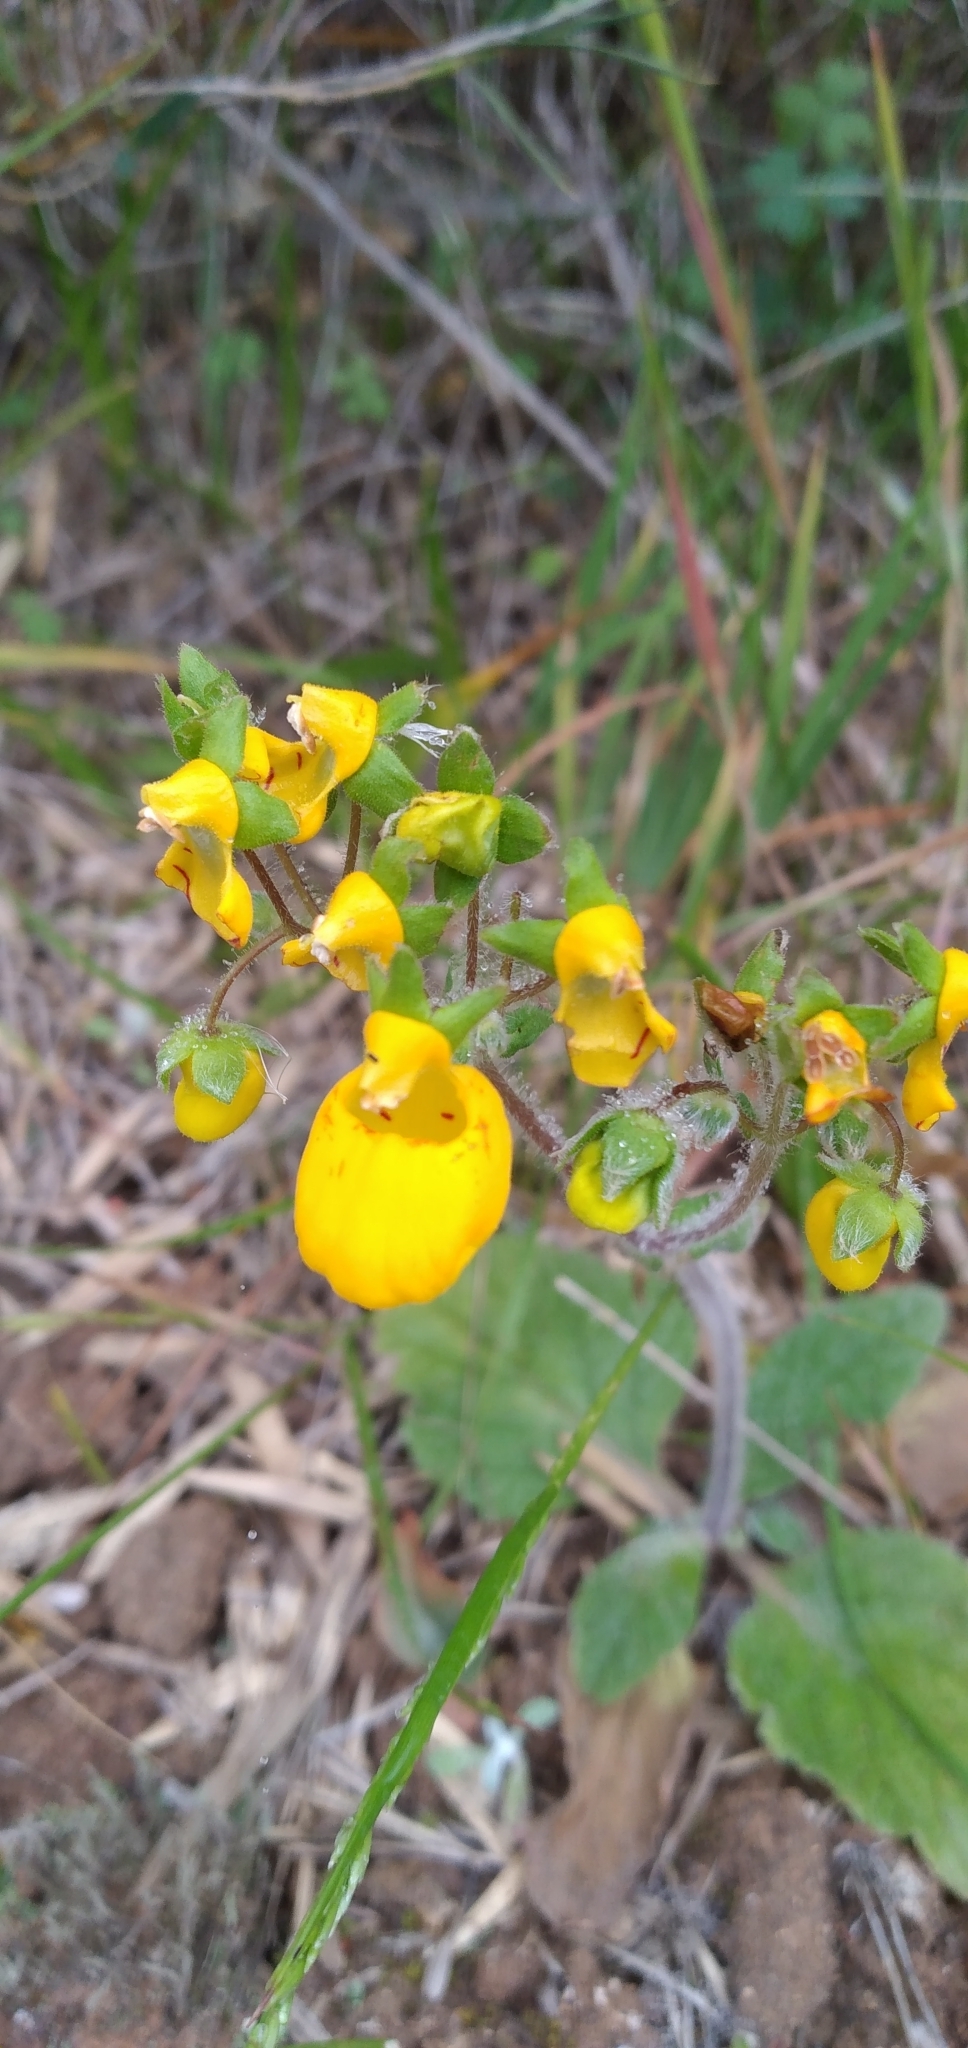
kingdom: Plantae
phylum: Tracheophyta
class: Magnoliopsida
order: Lamiales
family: Calceolariaceae
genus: Calceolaria
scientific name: Calceolaria corymbosa
